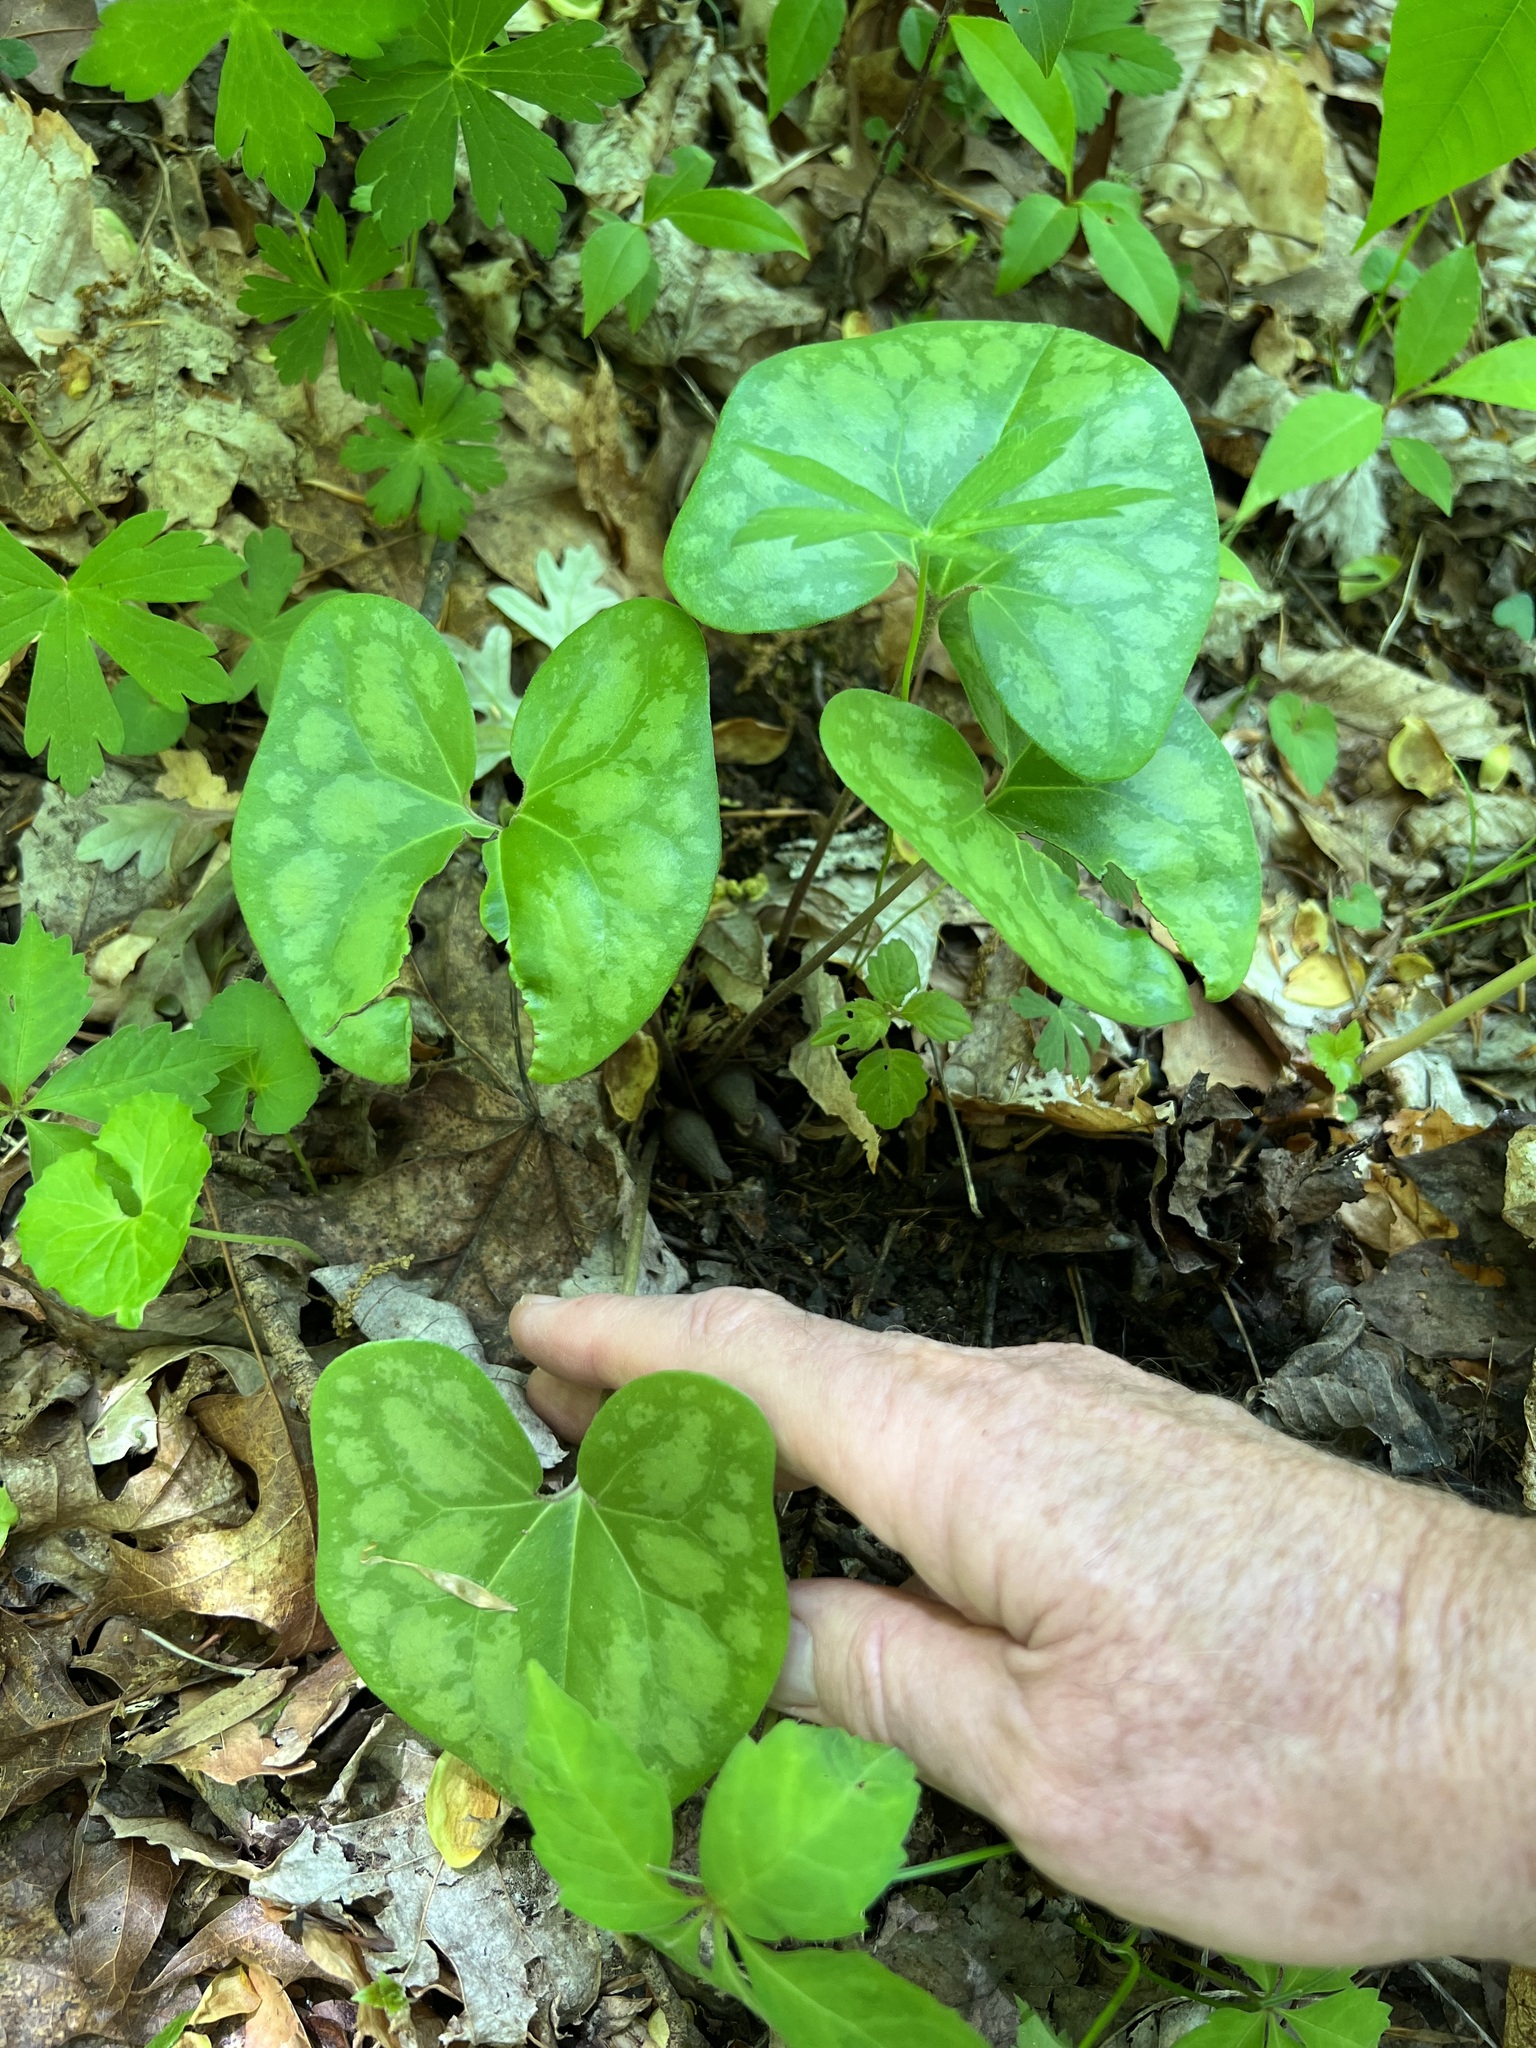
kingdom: Plantae
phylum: Tracheophyta
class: Magnoliopsida
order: Piperales
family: Aristolochiaceae
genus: Hexastylis
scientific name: Hexastylis arifolia
